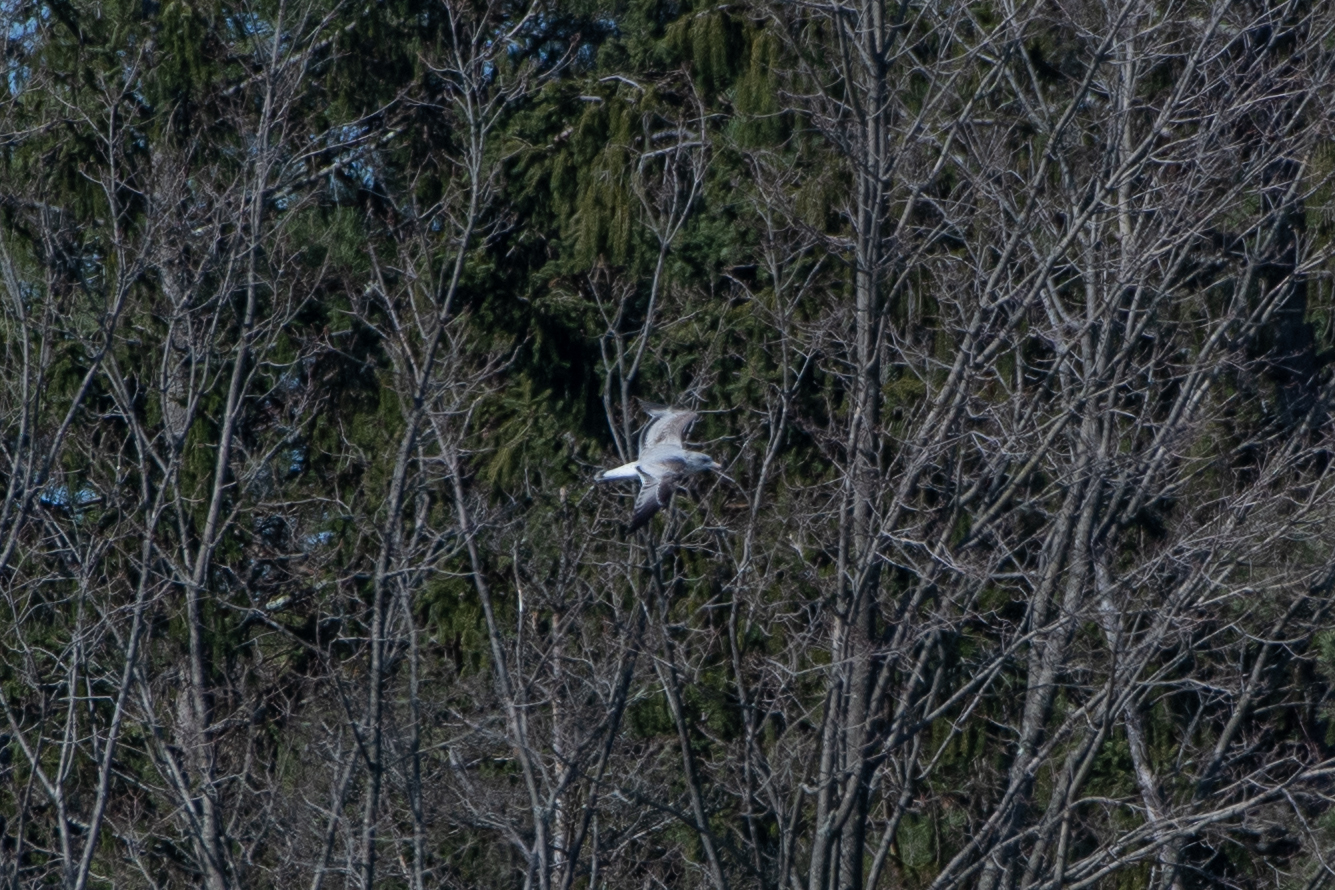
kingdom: Animalia
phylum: Chordata
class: Aves
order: Charadriiformes
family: Laridae
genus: Larus
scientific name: Larus delawarensis
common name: Ring-billed gull
